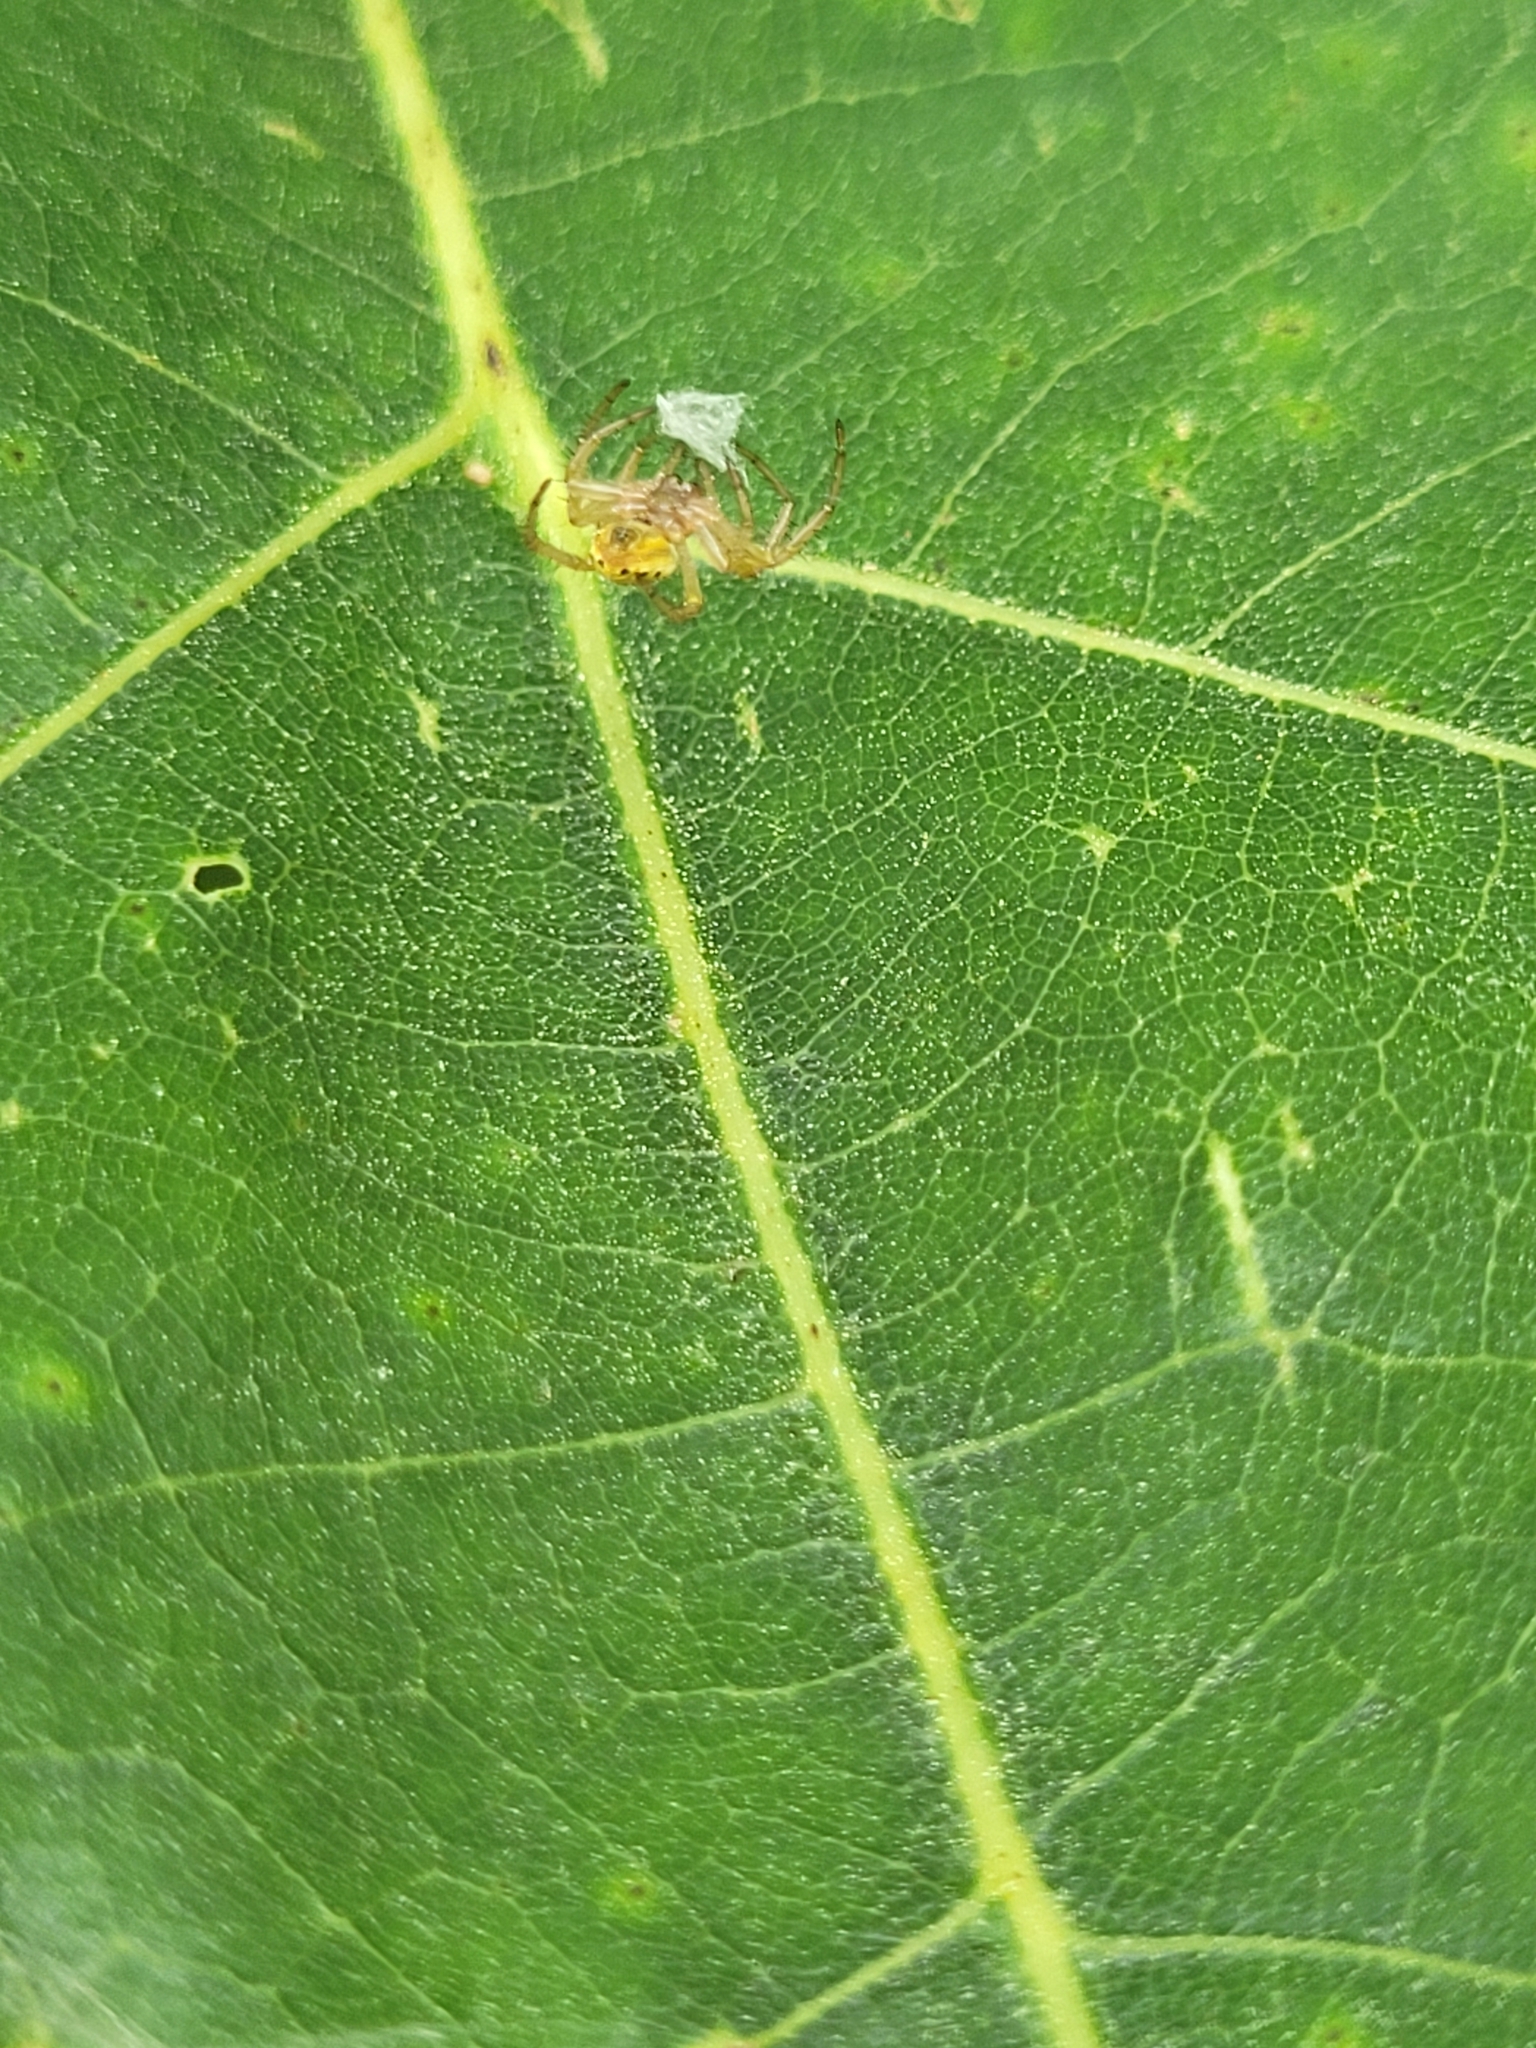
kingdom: Animalia
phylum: Arthropoda
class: Arachnida
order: Araneae
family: Araneidae
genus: Araniella
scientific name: Araniella displicata
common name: Sixspotted orb weaver
